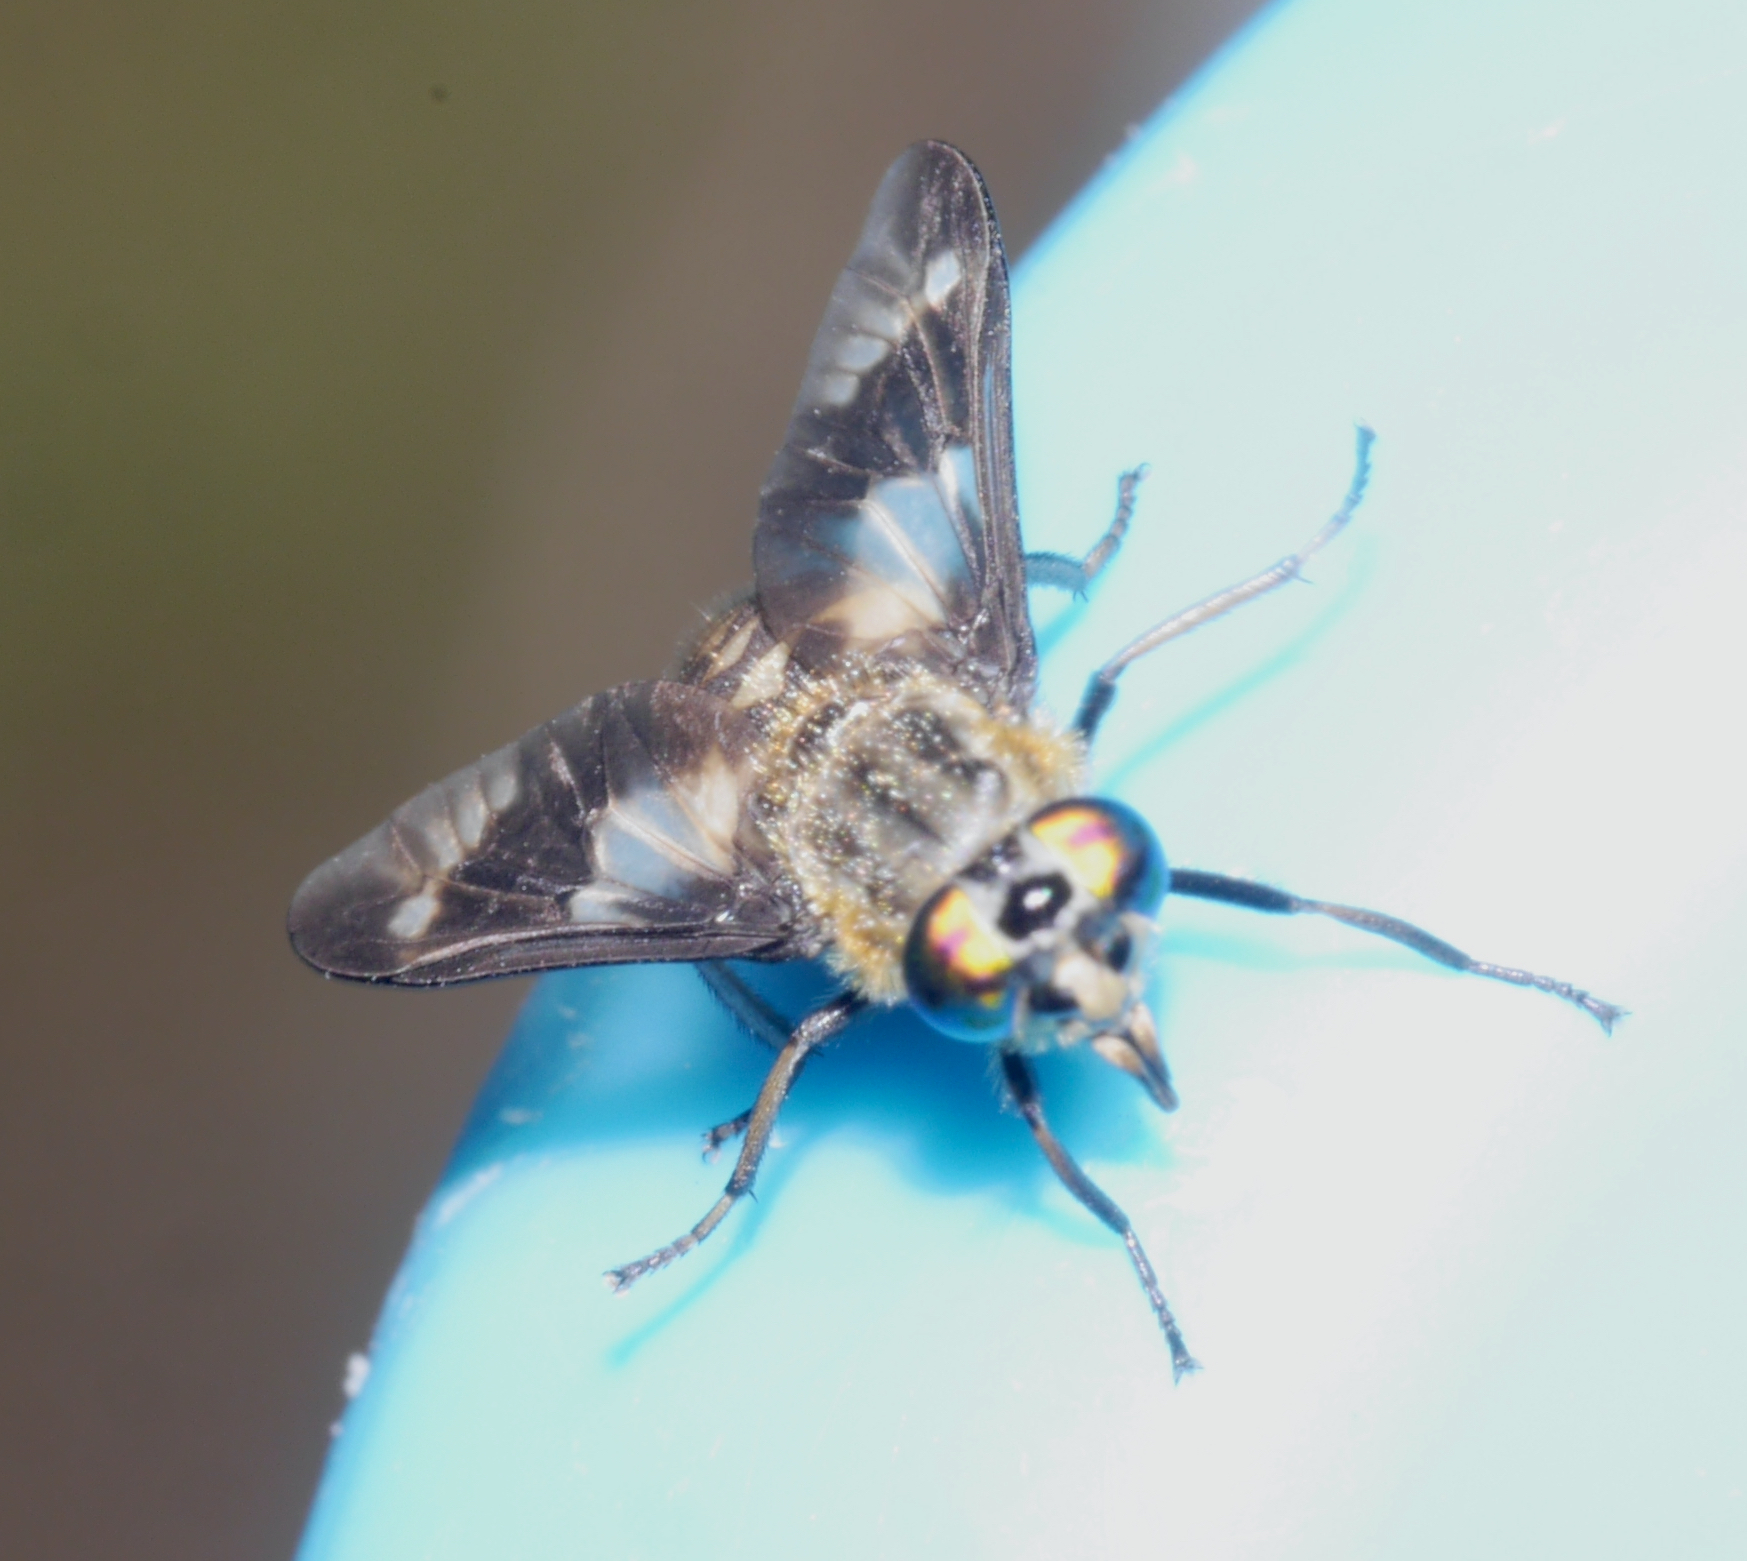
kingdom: Animalia
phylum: Arthropoda
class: Insecta
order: Diptera
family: Tabanidae
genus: Chrysops
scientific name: Chrysops relictus
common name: Twin-lobed deerfly
